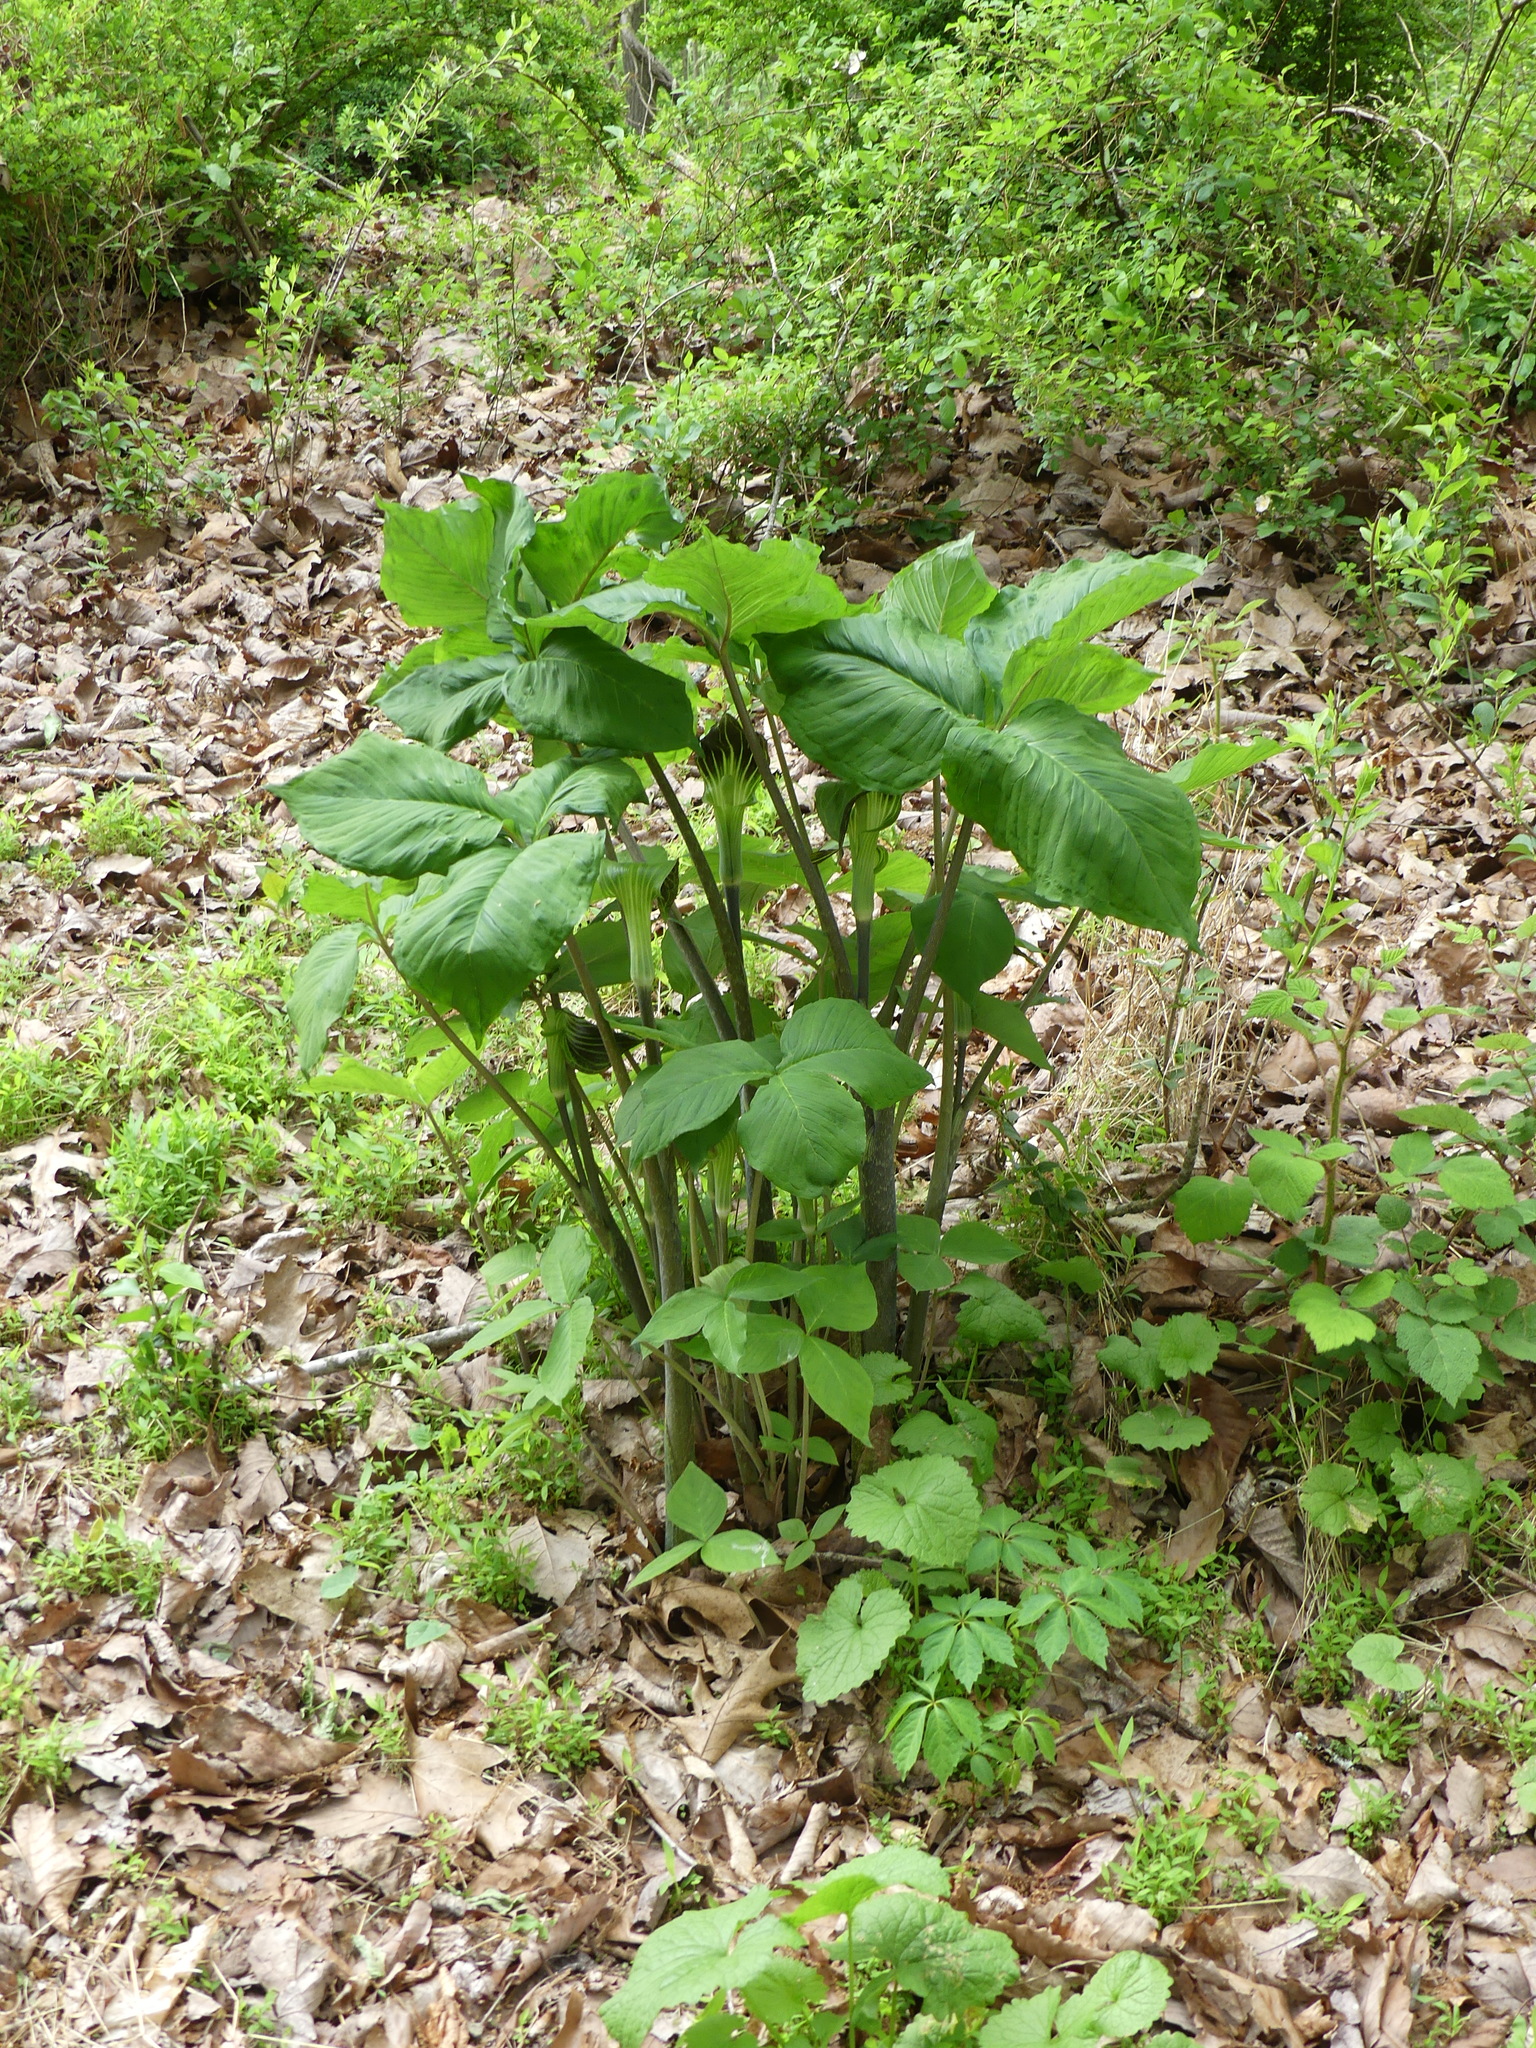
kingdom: Plantae
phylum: Tracheophyta
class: Liliopsida
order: Alismatales
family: Araceae
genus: Arisaema
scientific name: Arisaema triphyllum
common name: Jack-in-the-pulpit
